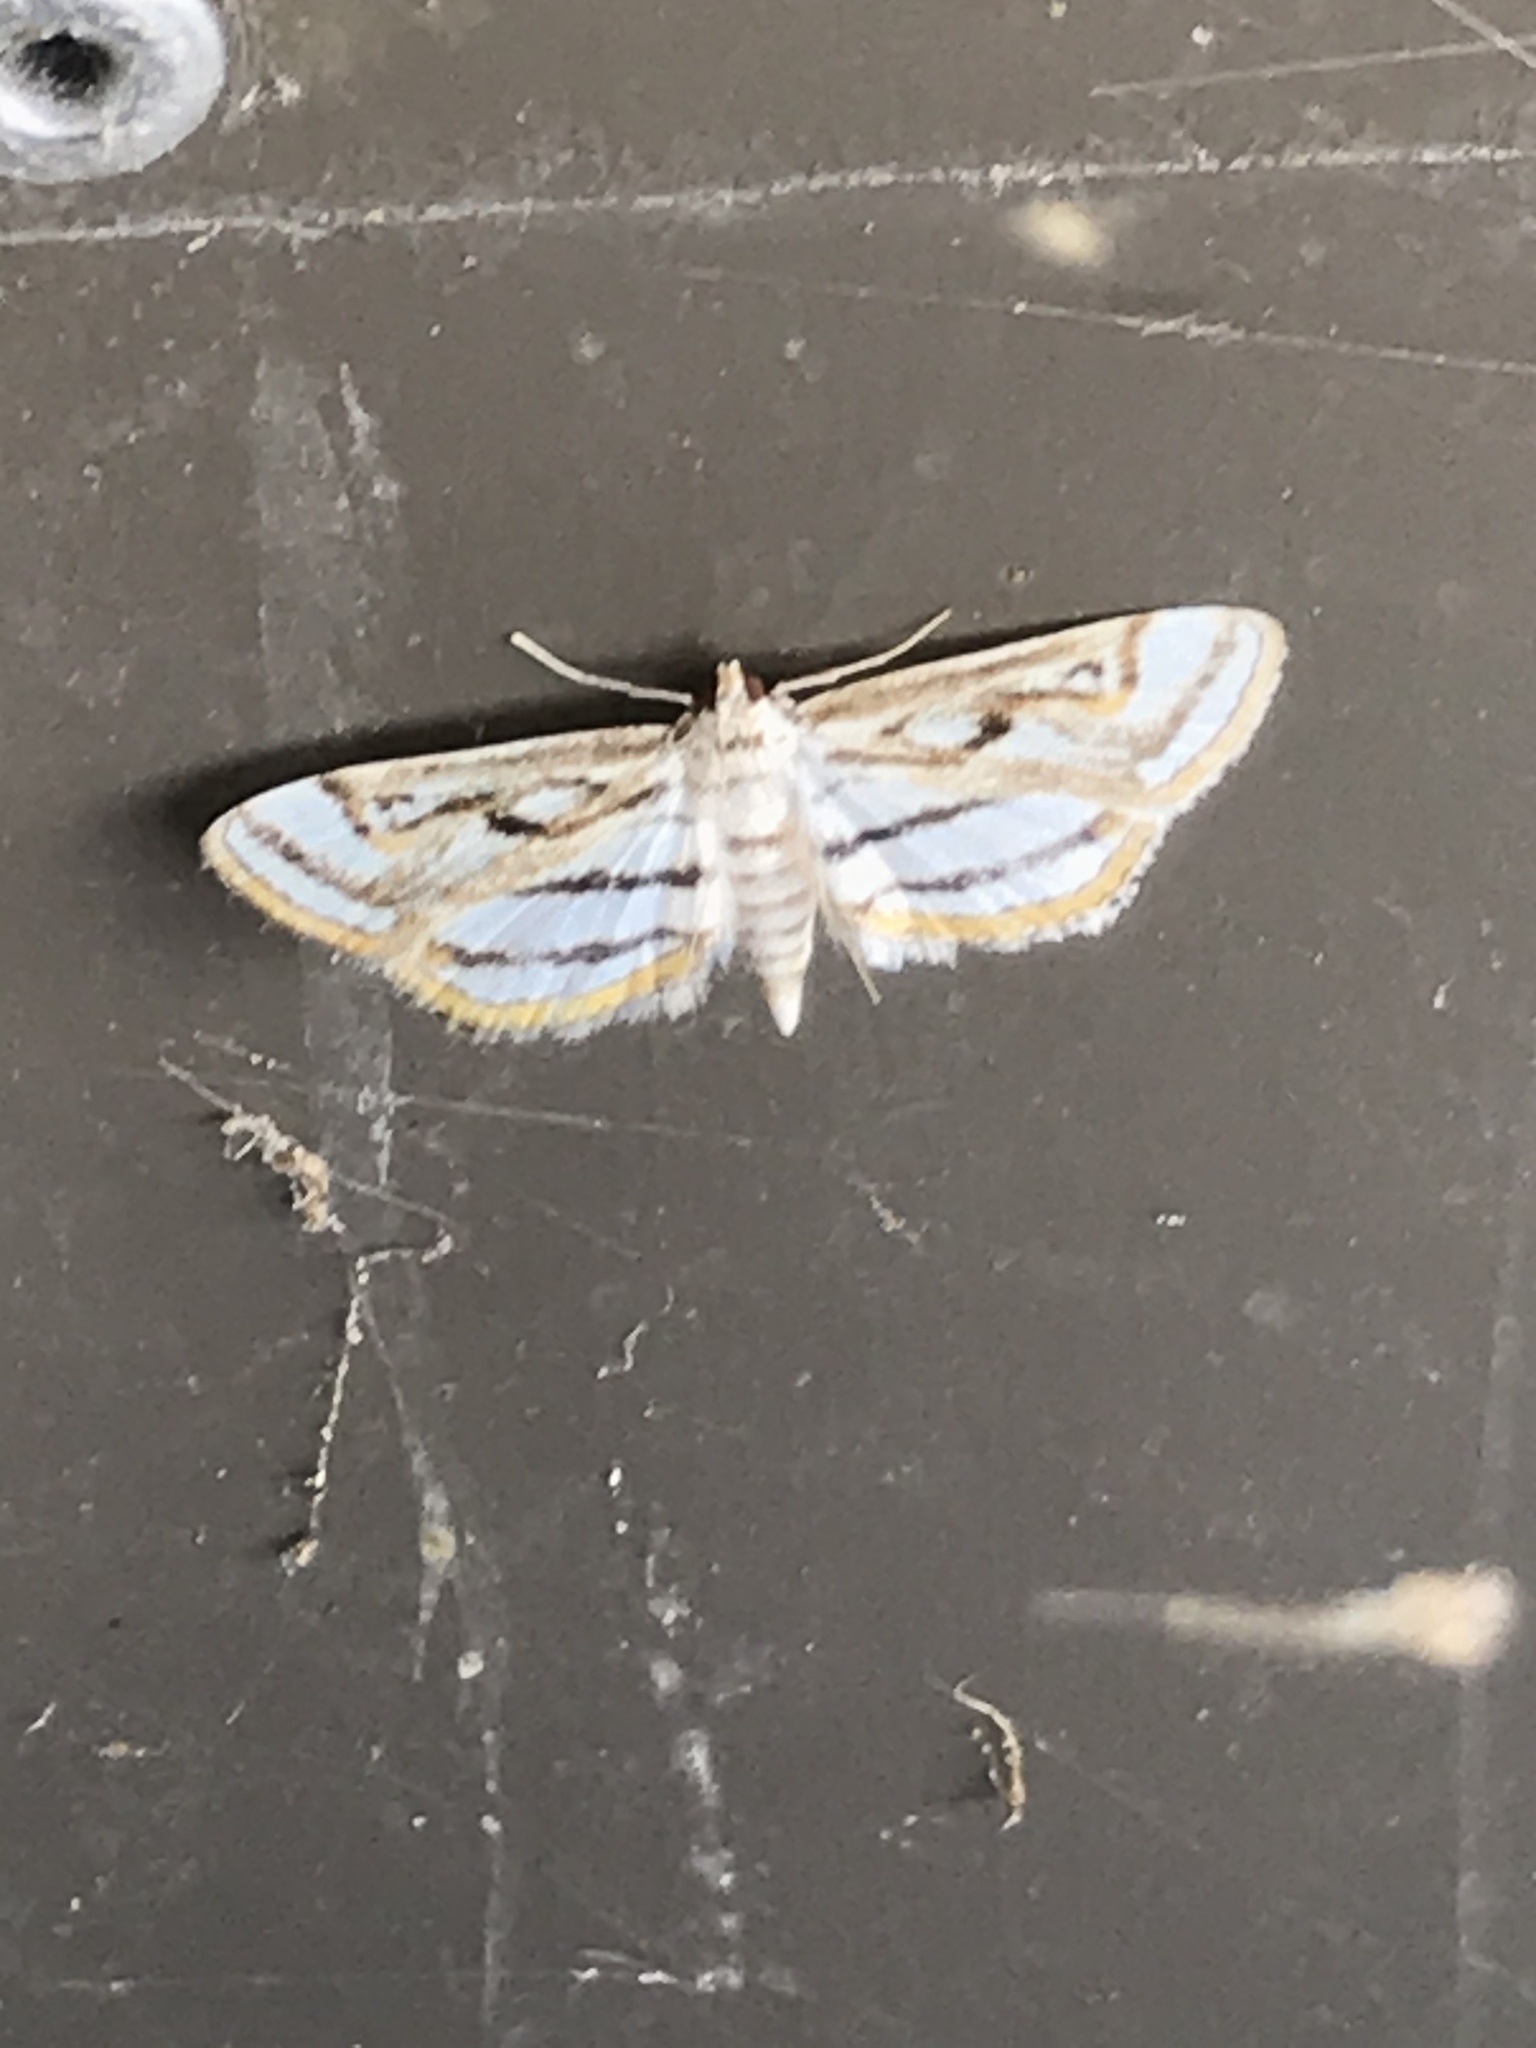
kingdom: Animalia
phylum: Arthropoda
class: Insecta
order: Lepidoptera
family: Crambidae
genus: Parapoynx
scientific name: Parapoynx badiusalis
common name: Chestnut-marked pondweed moth
